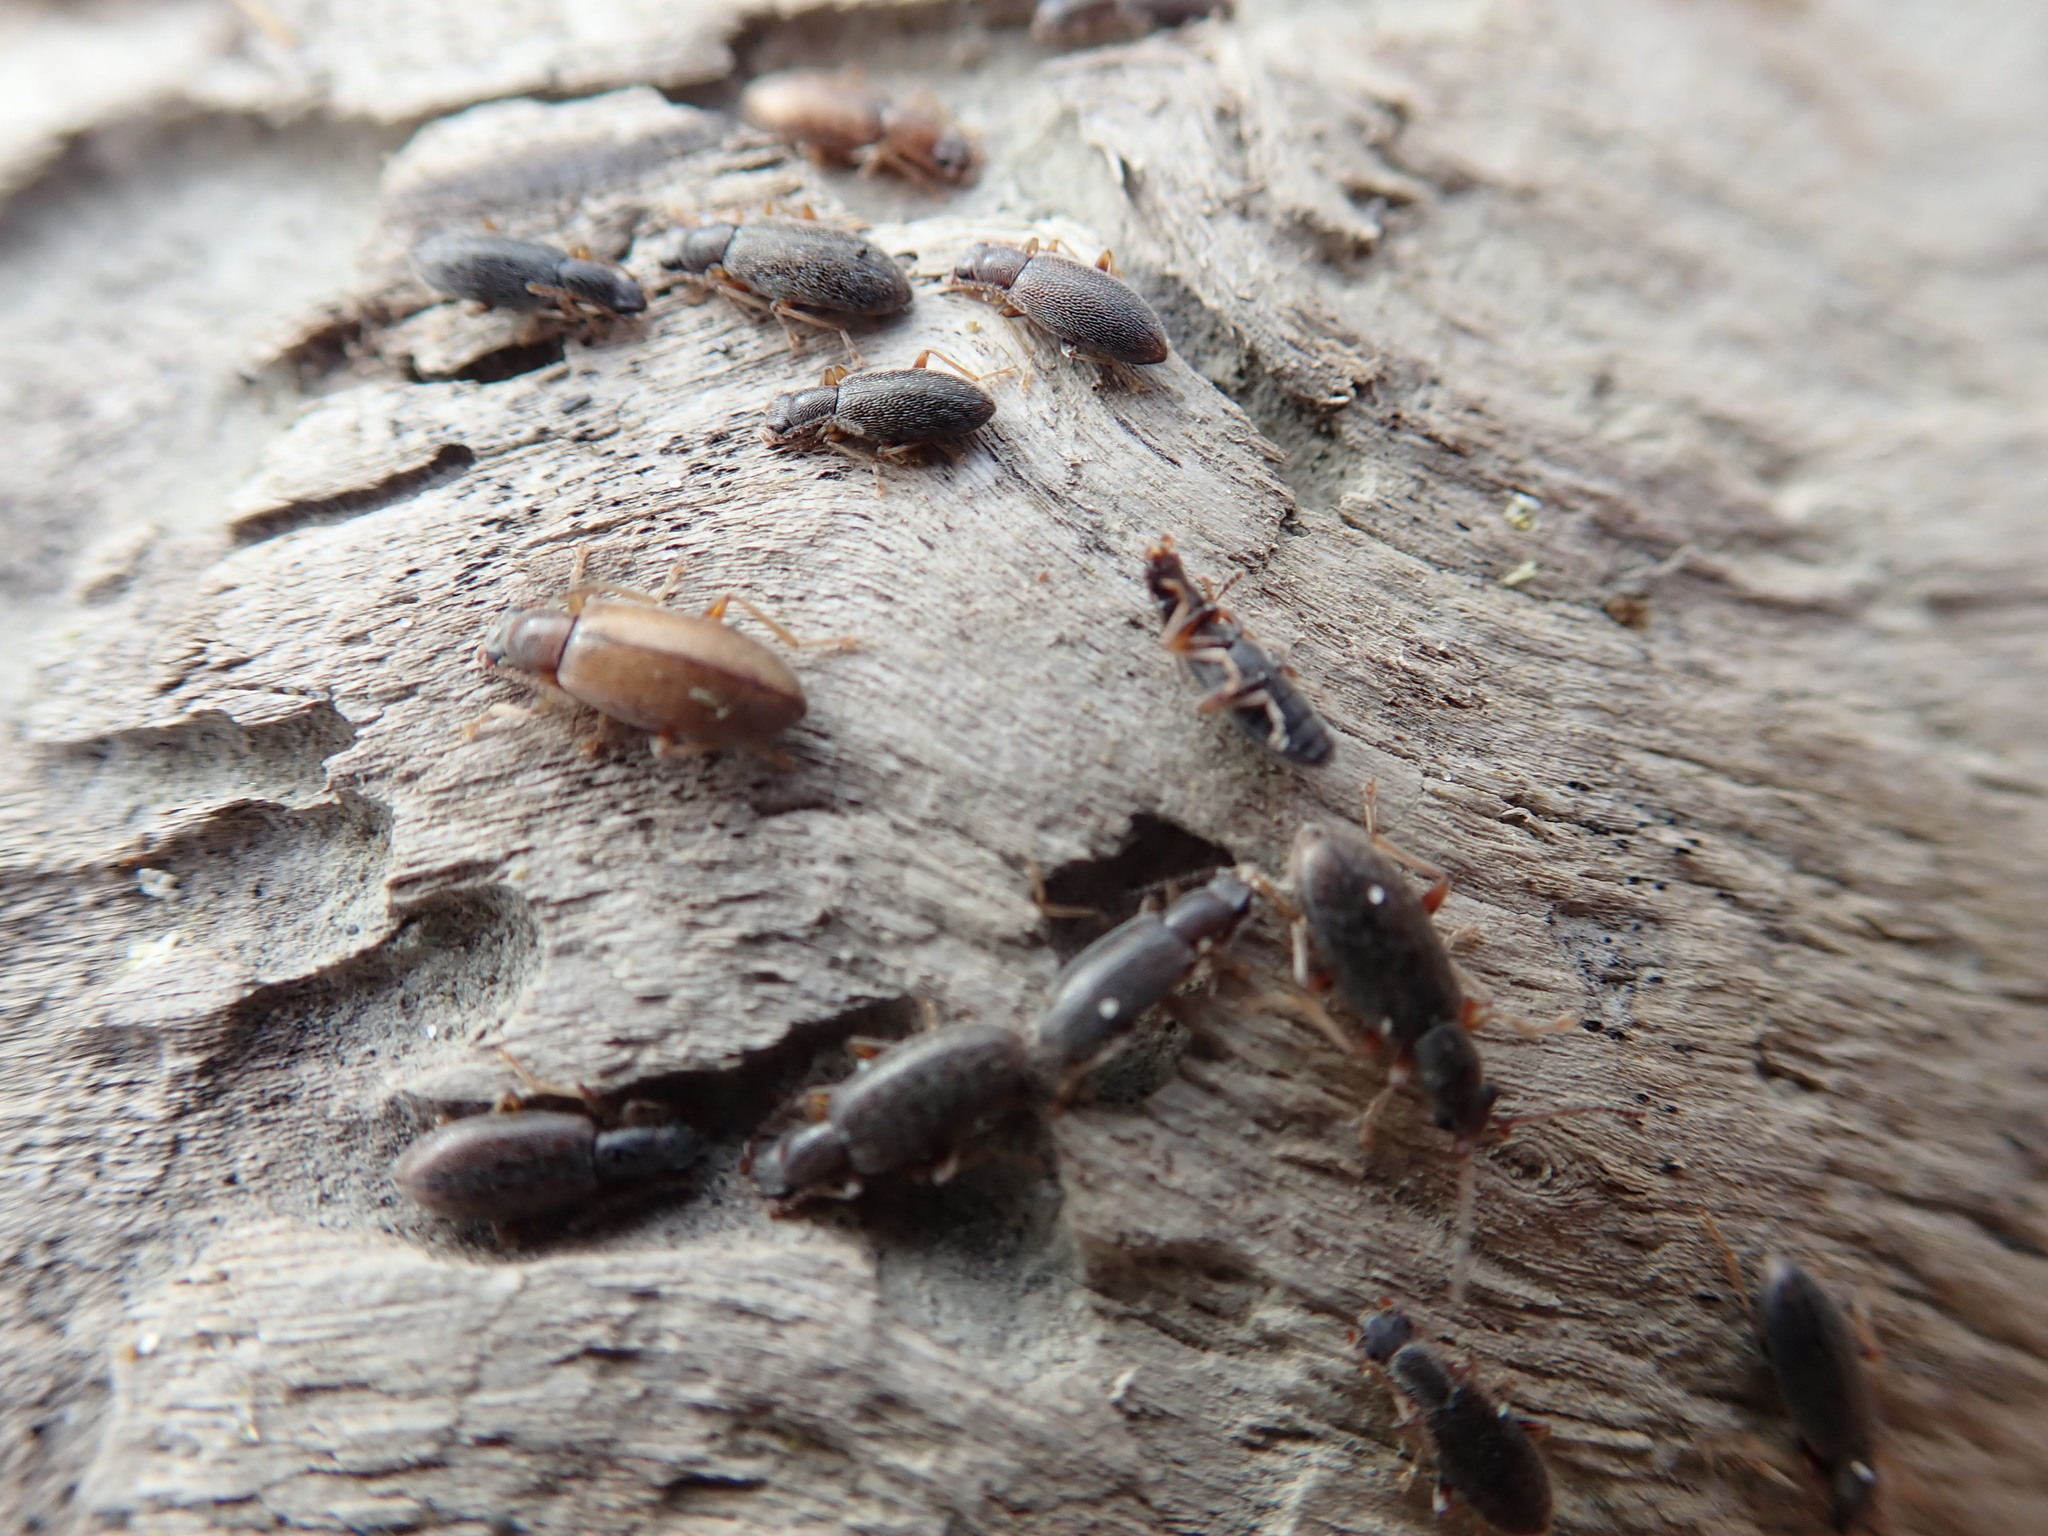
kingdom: Animalia
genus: Lagrioda
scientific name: Lagrioda brounii
